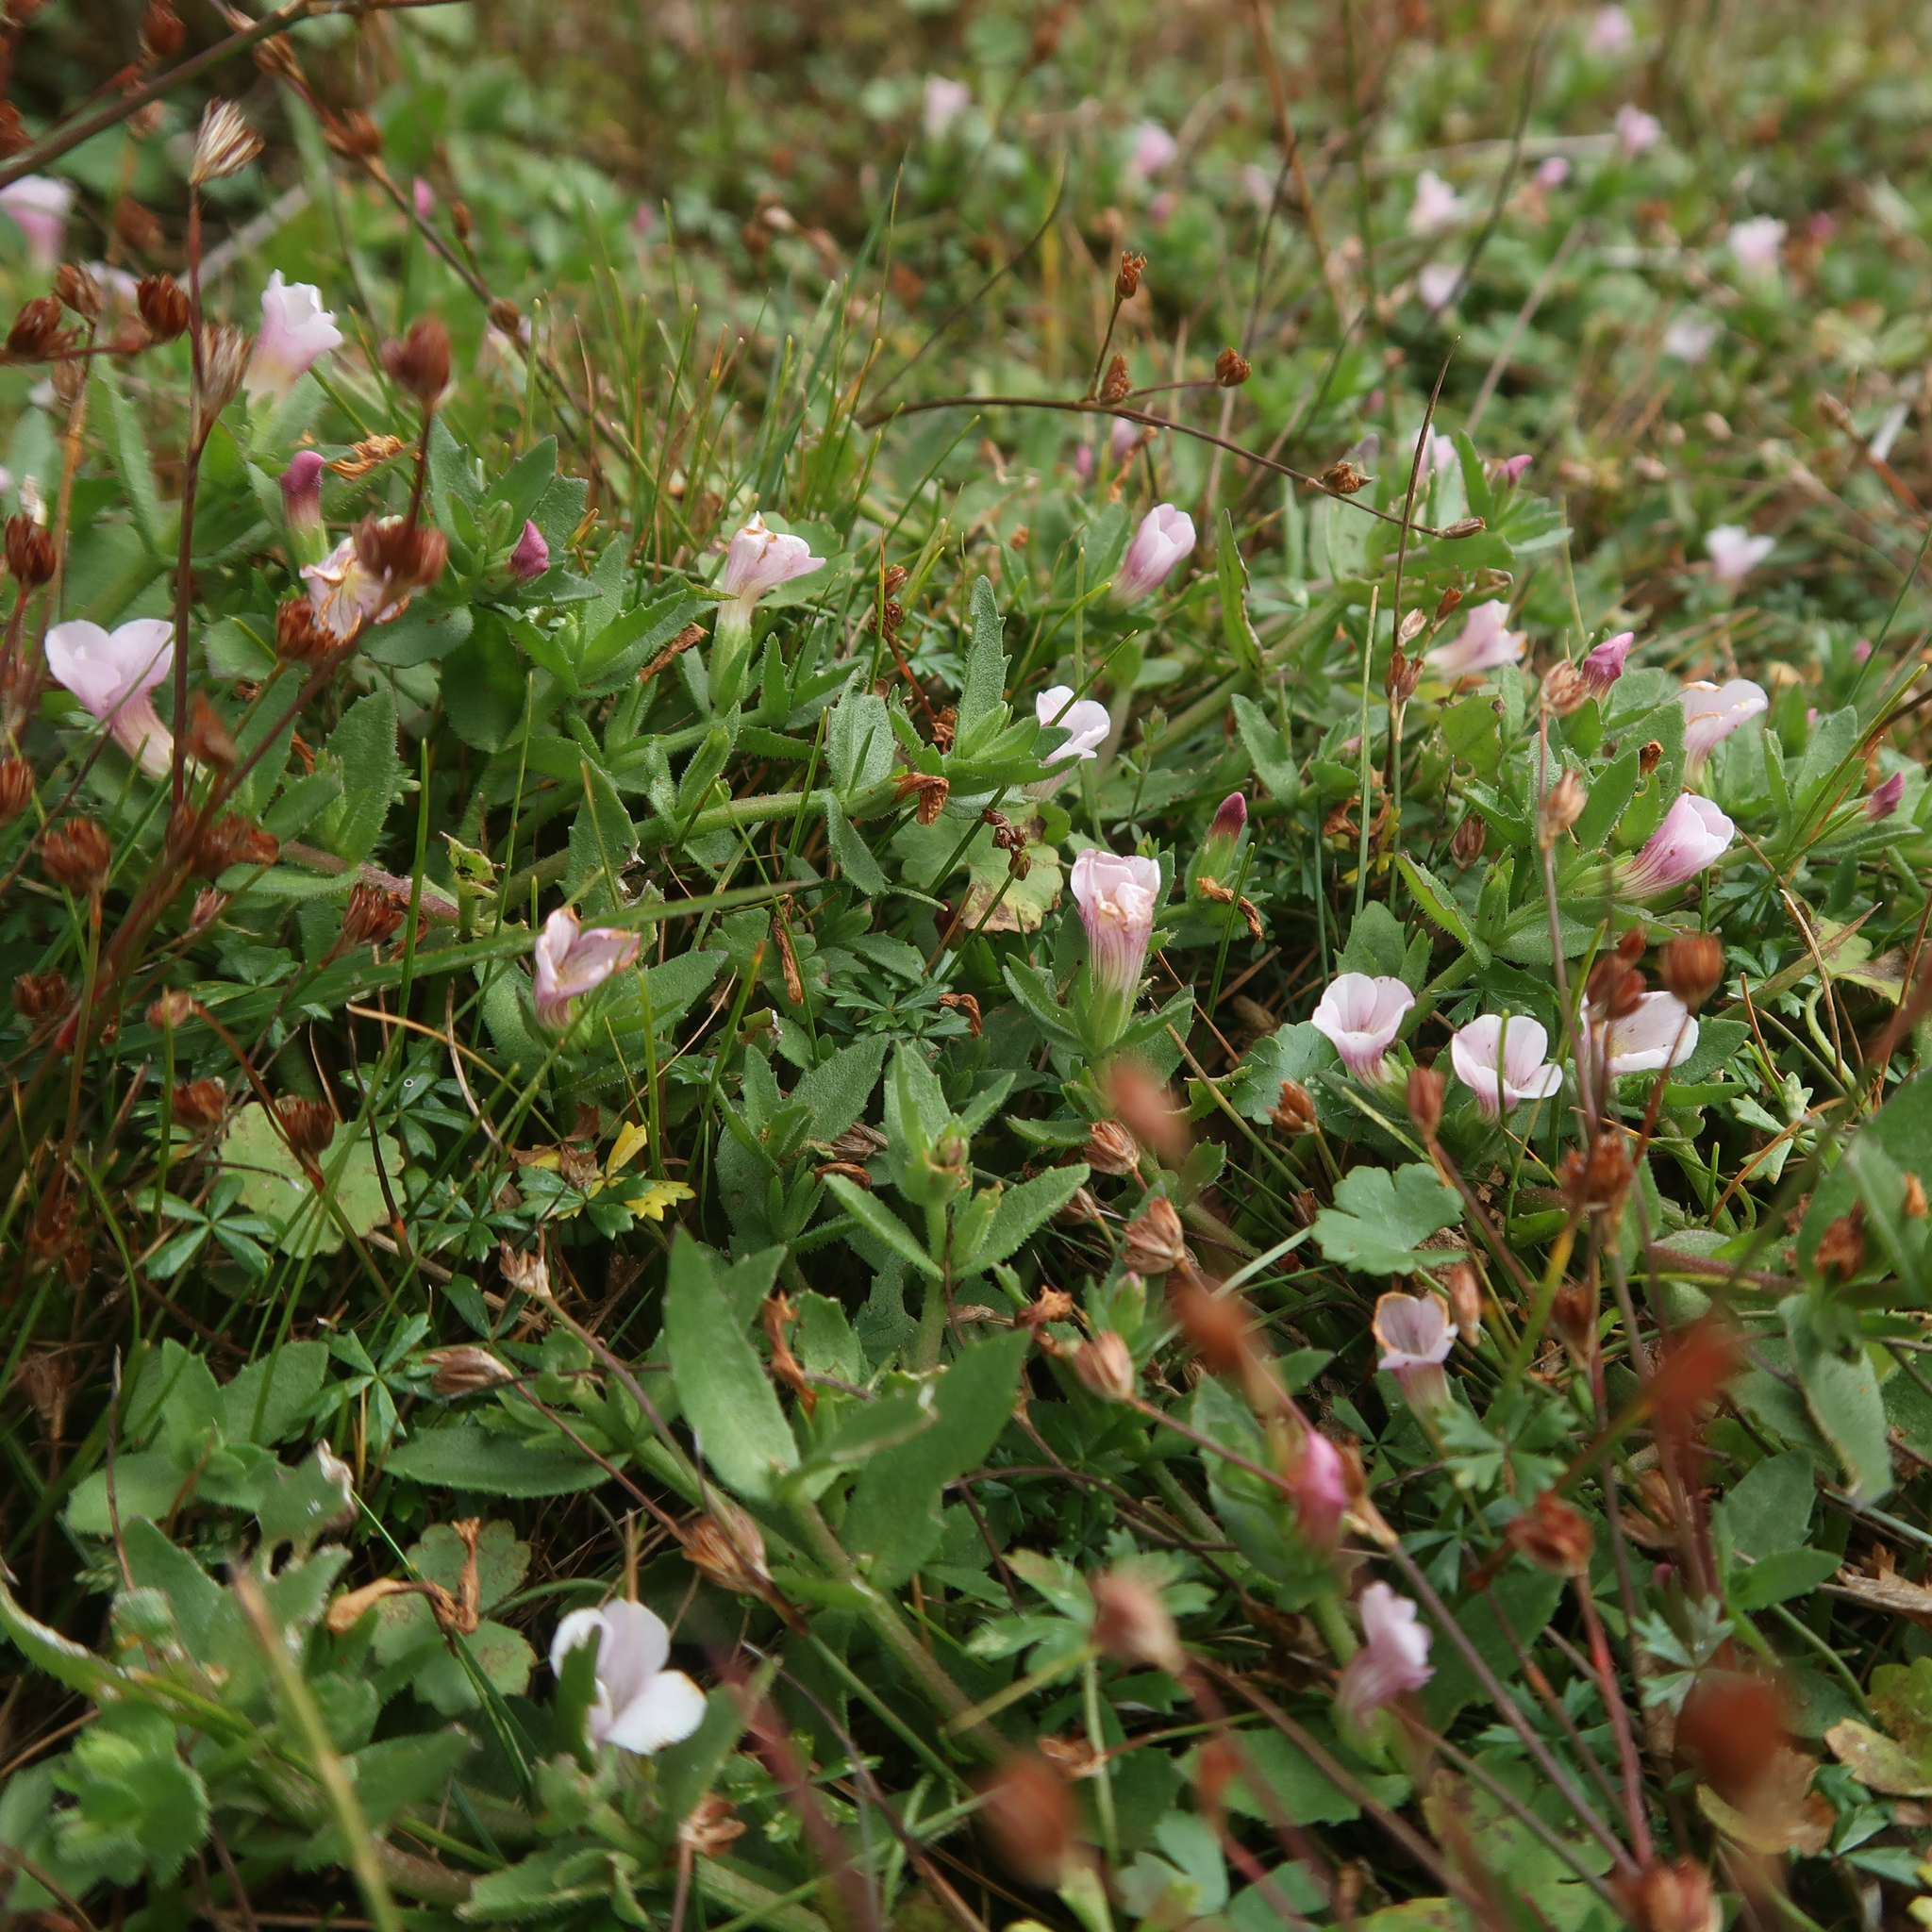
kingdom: Plantae
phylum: Tracheophyta
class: Magnoliopsida
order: Lamiales
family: Plantaginaceae
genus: Gratiola
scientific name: Gratiola pubescens
